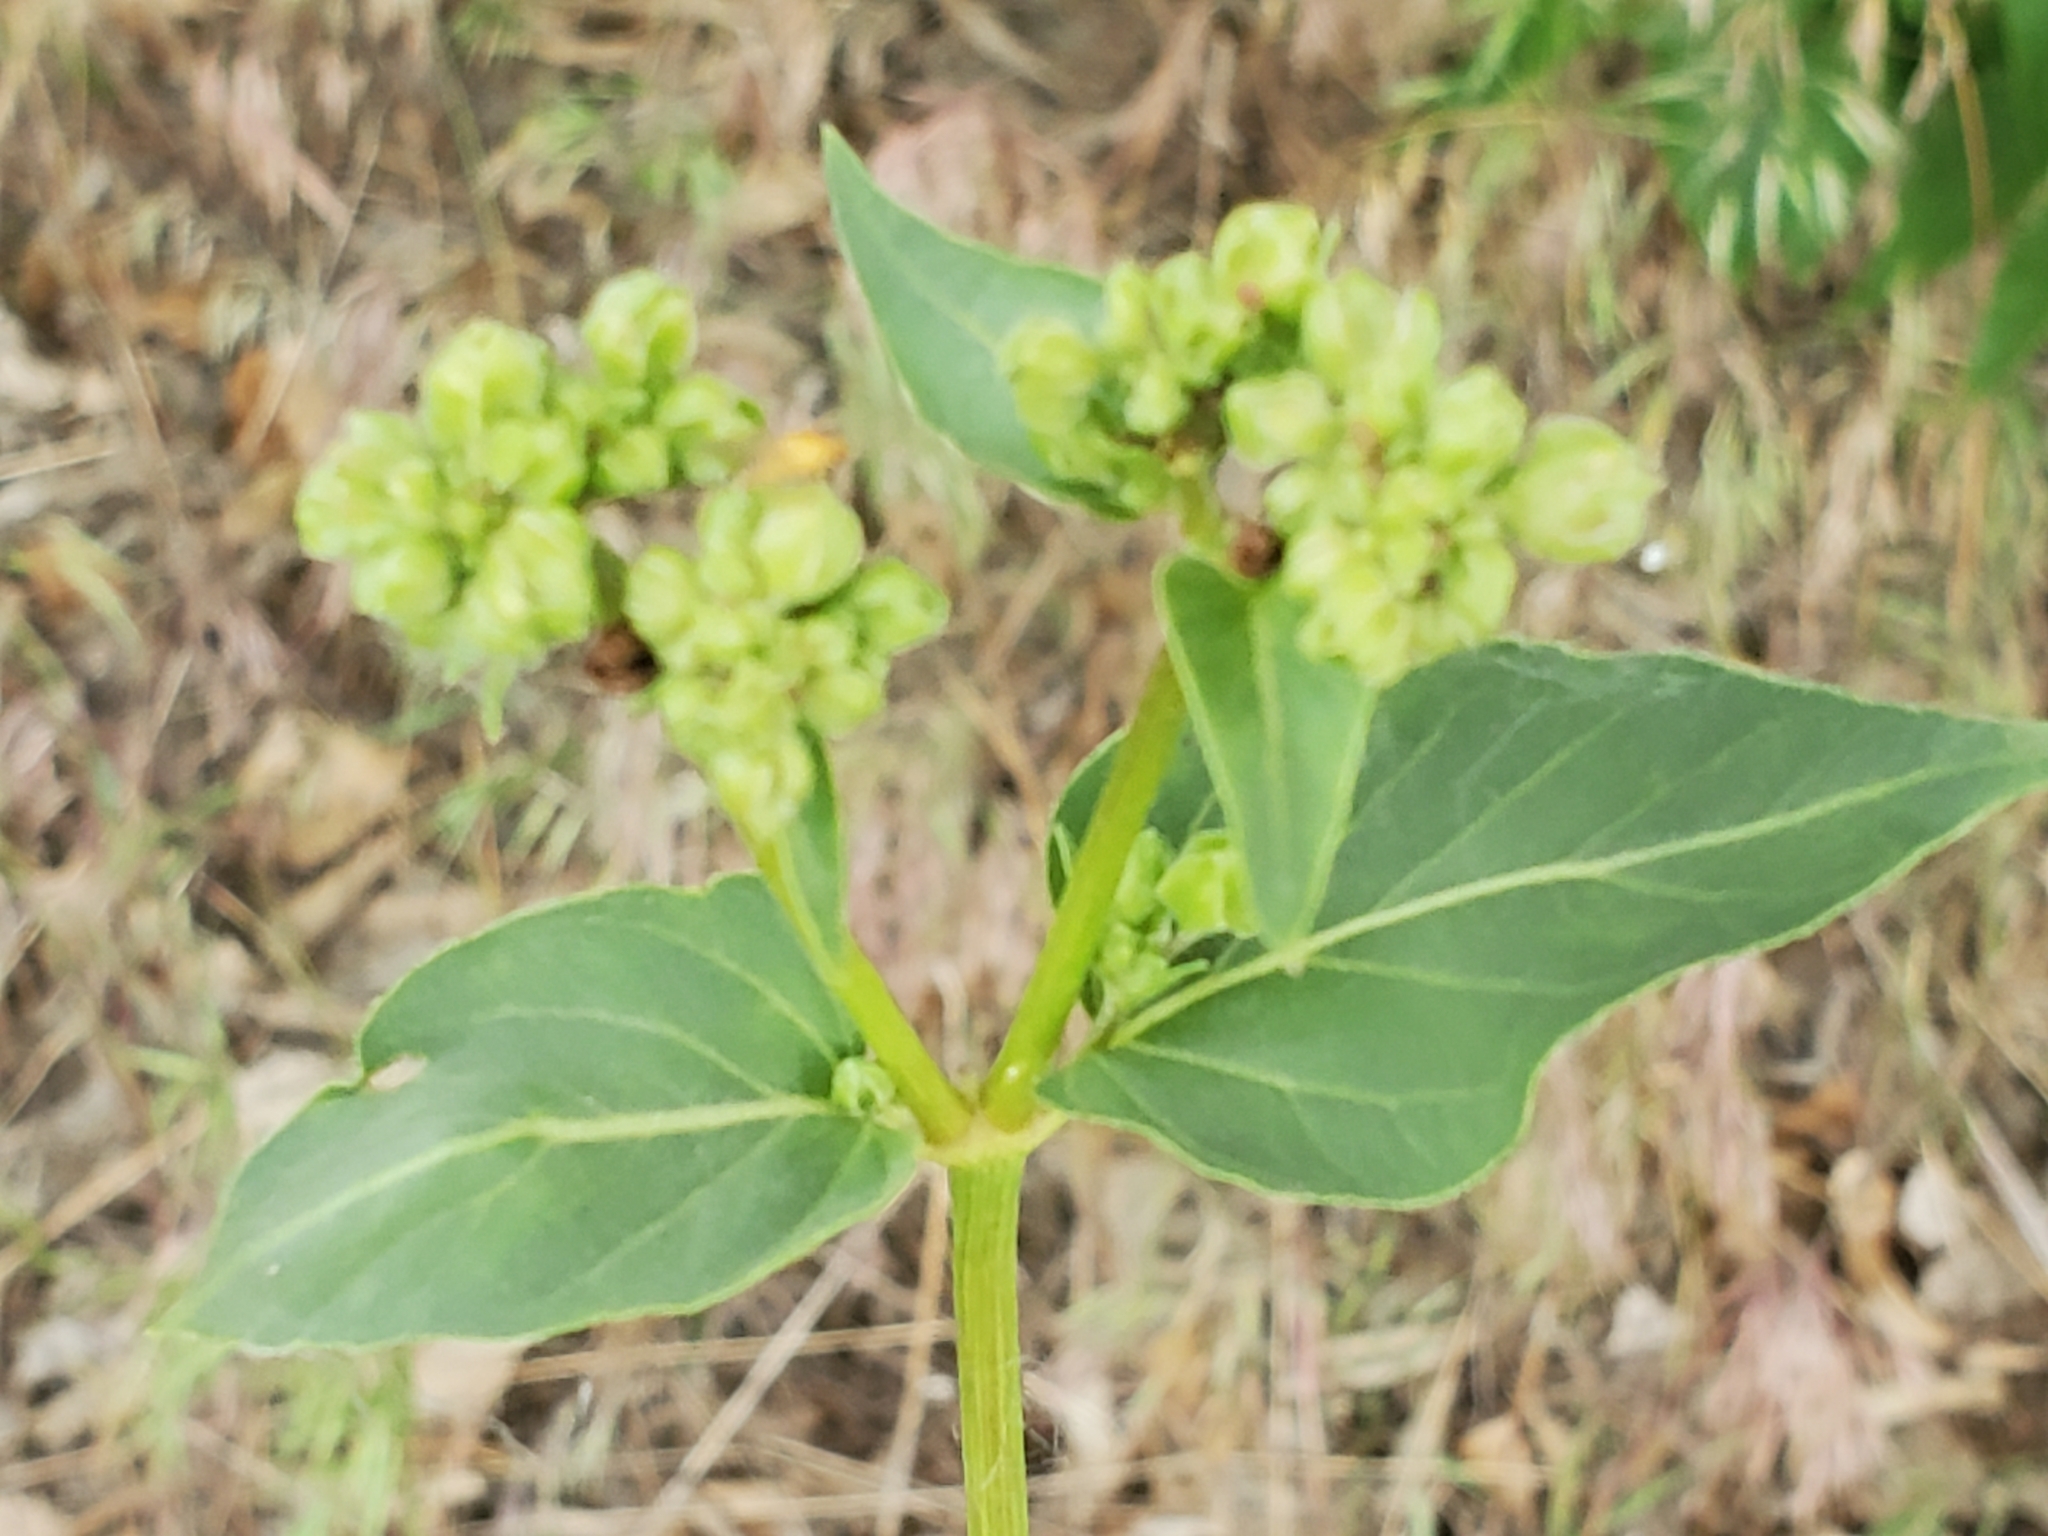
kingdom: Plantae
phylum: Tracheophyta
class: Magnoliopsida
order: Caryophyllales
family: Nyctaginaceae
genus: Mirabilis
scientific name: Mirabilis nyctaginea
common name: Umbrella wort
